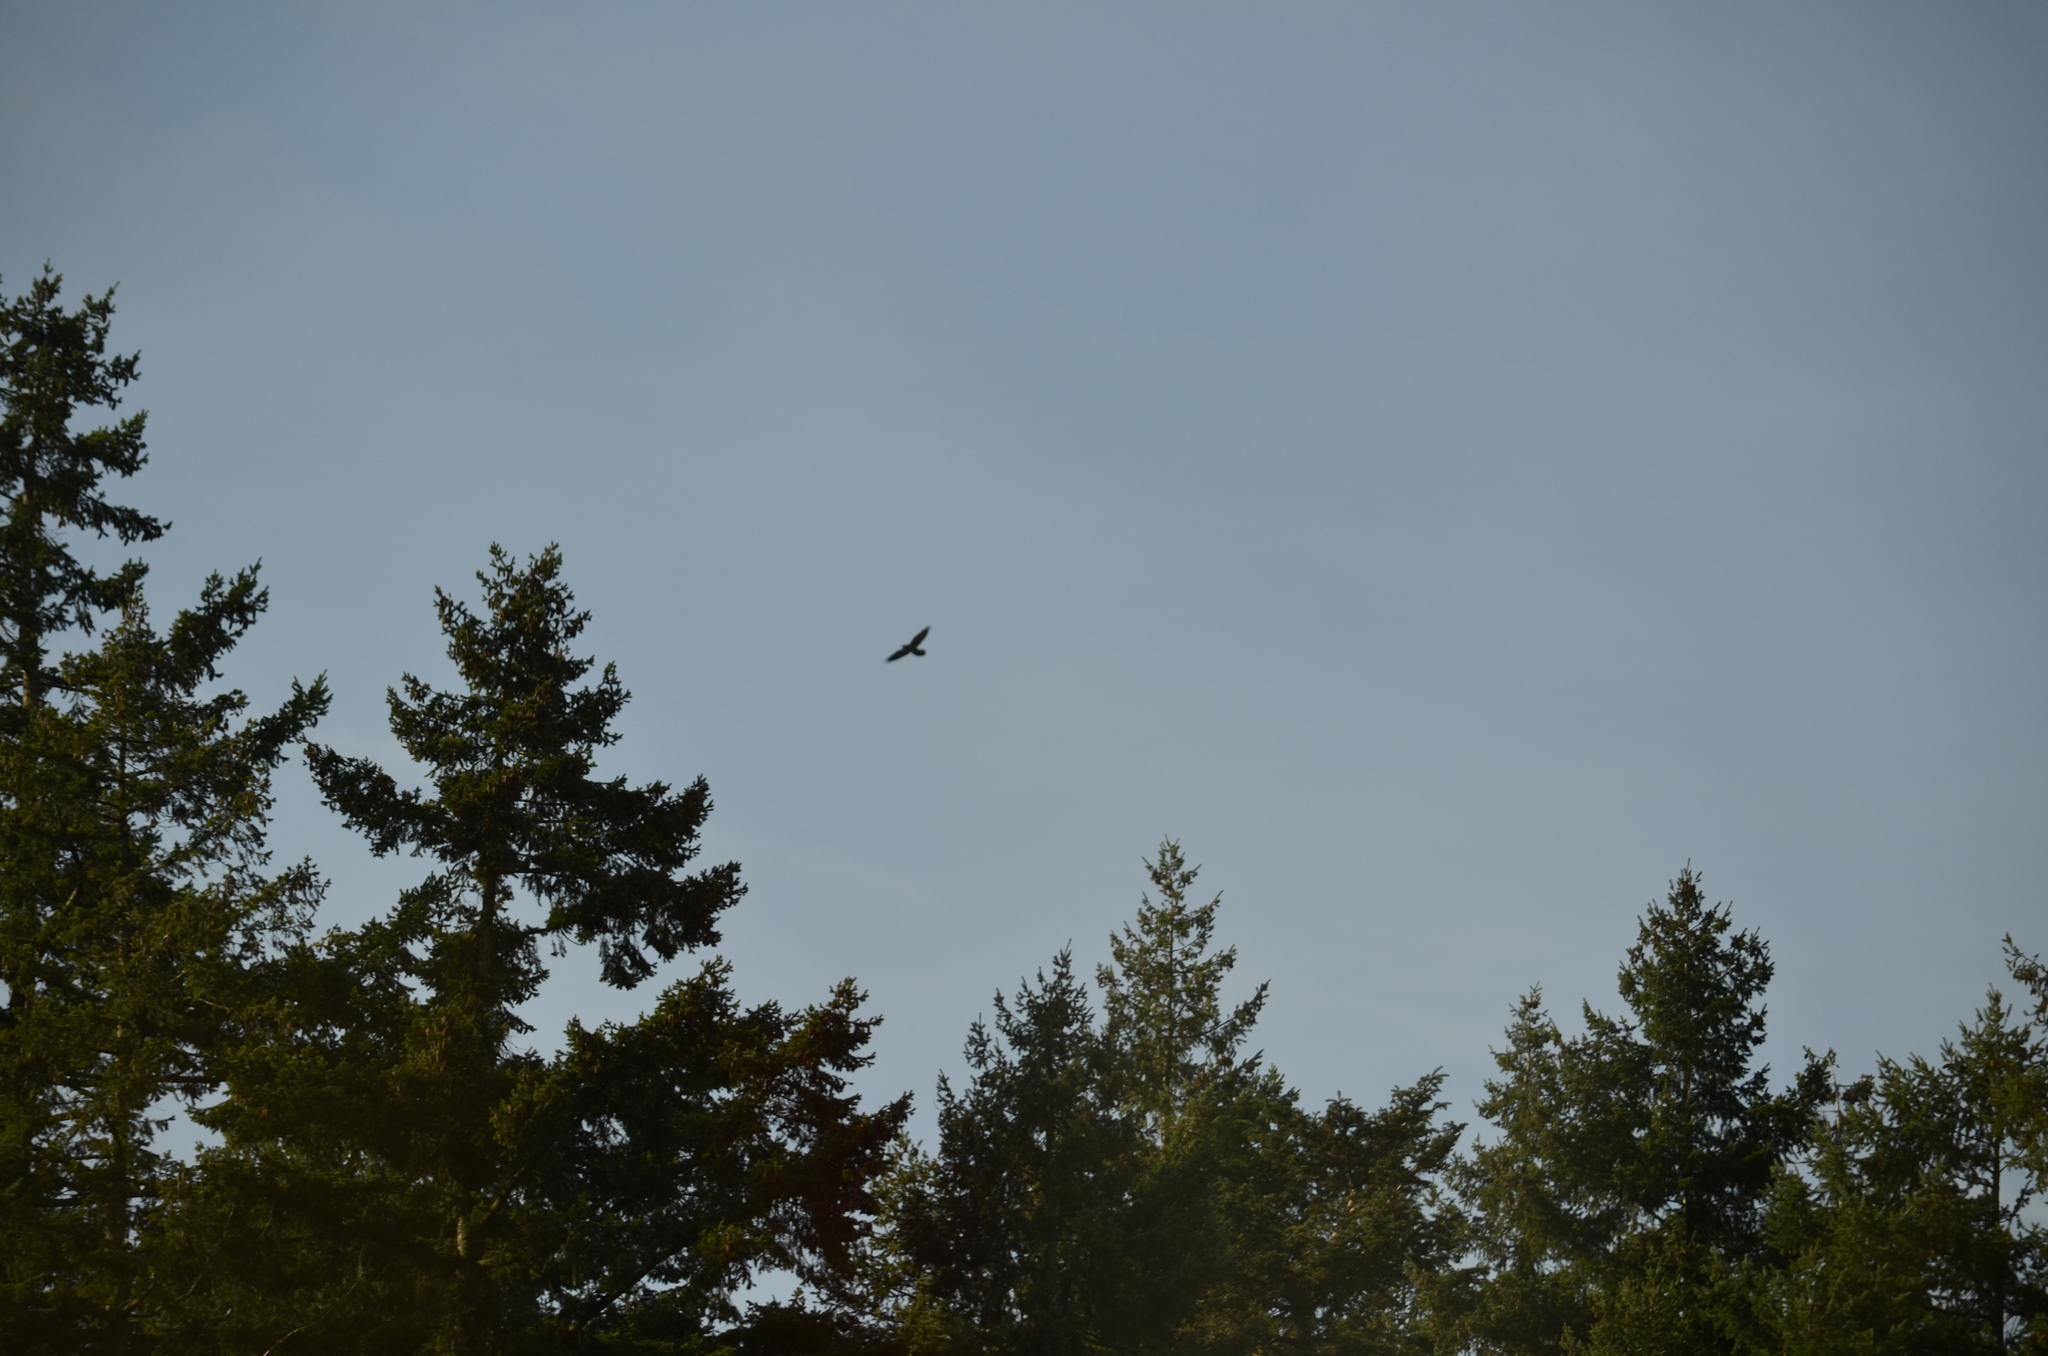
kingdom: Animalia
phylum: Chordata
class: Aves
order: Accipitriformes
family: Accipitridae
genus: Buteo
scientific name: Buteo jamaicensis
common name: Red-tailed hawk
